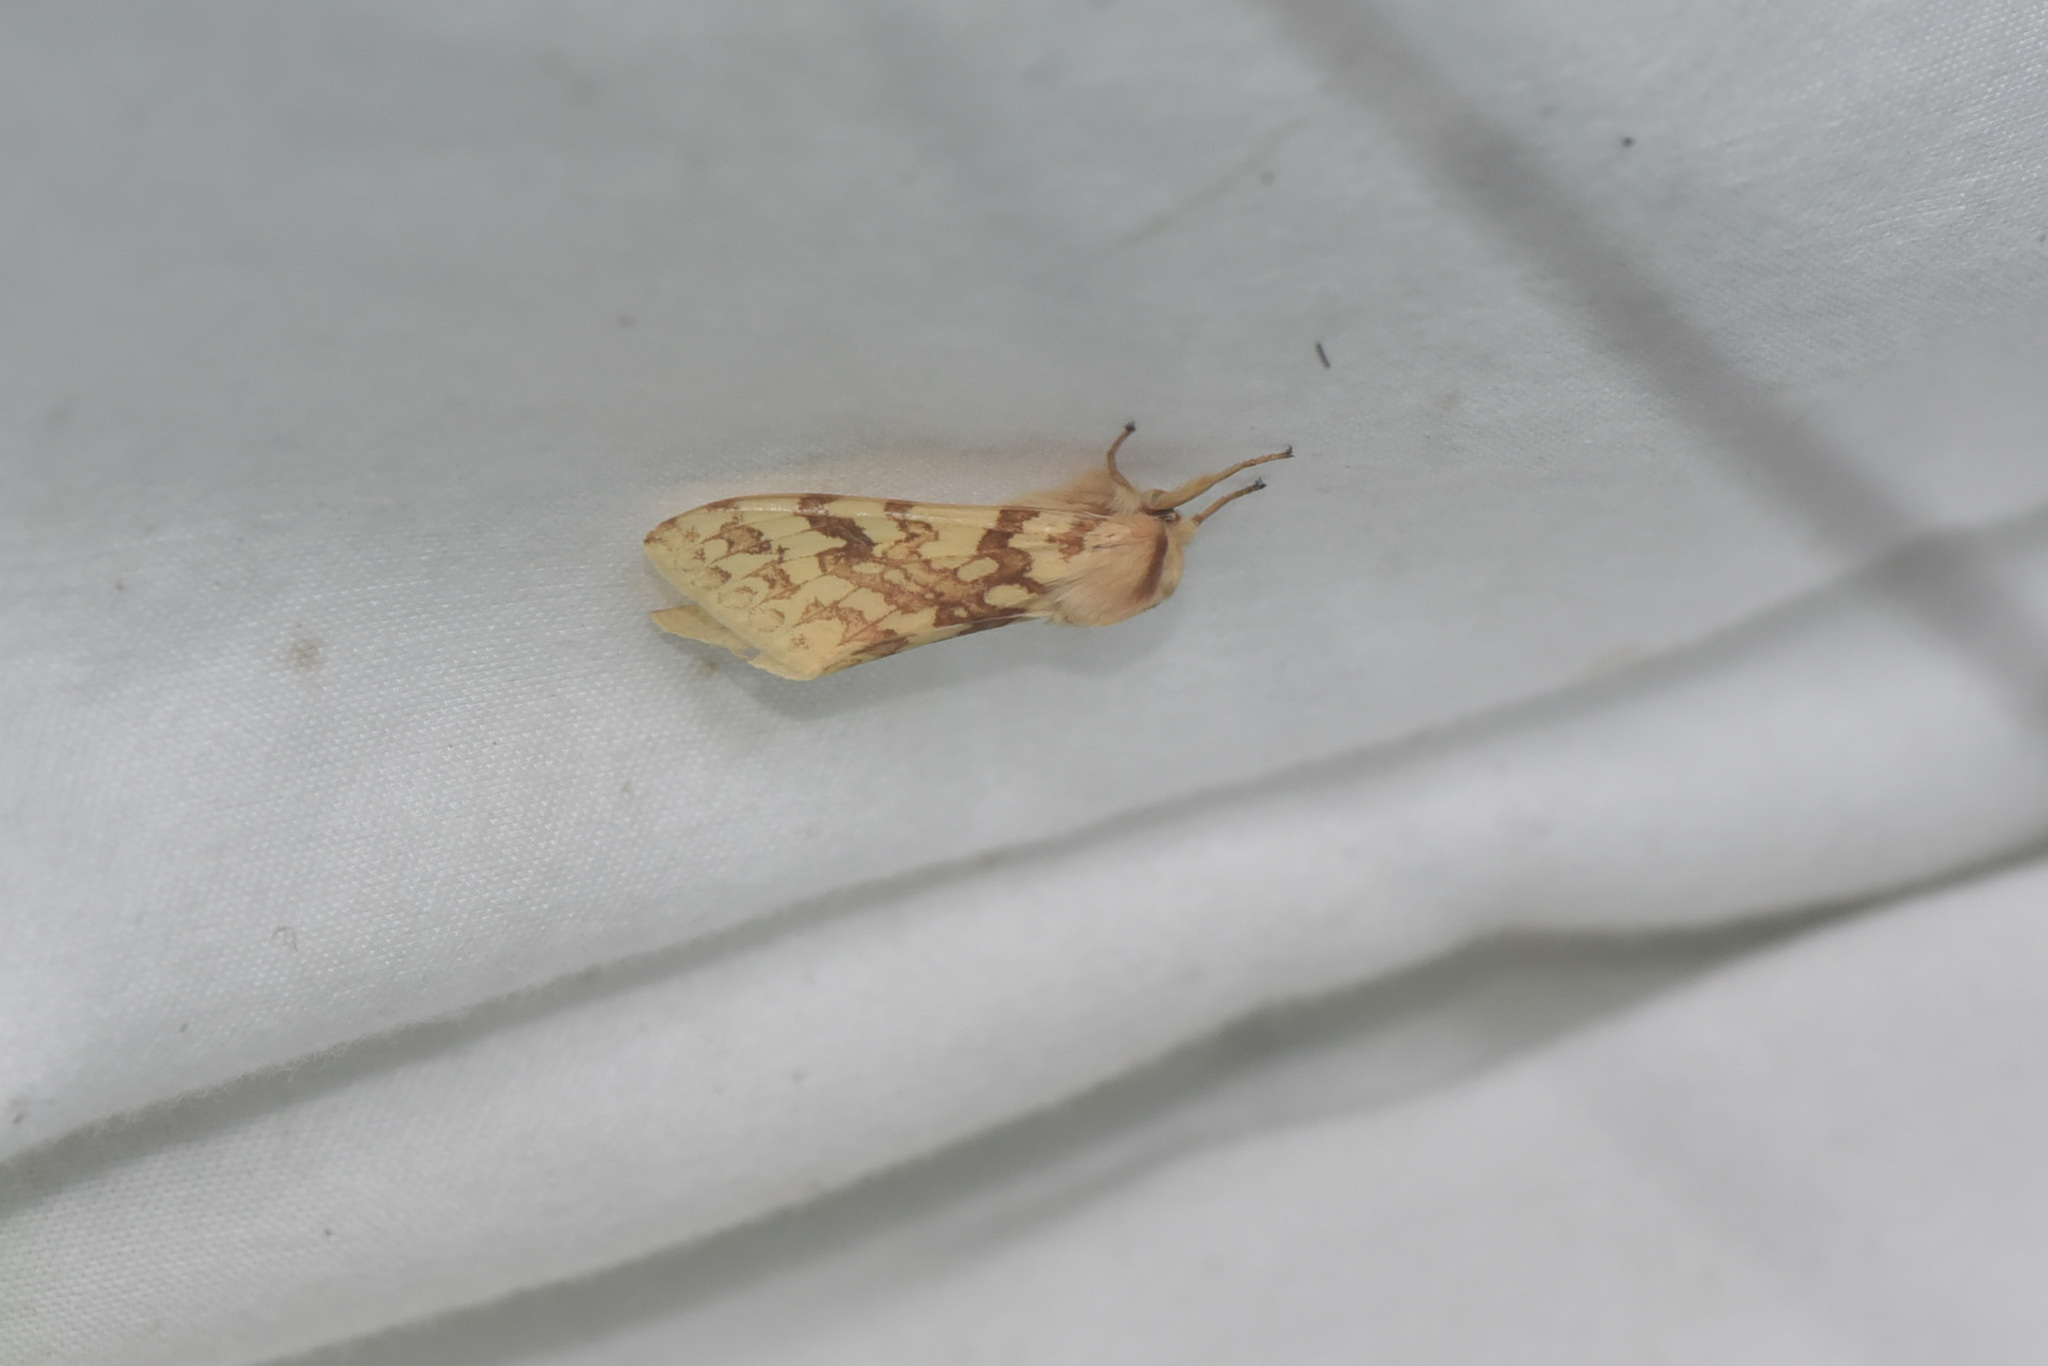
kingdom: Animalia
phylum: Arthropoda
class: Insecta
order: Lepidoptera
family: Erebidae
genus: Lophocampa
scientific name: Lophocampa maculata
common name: Spotted tussock moth
